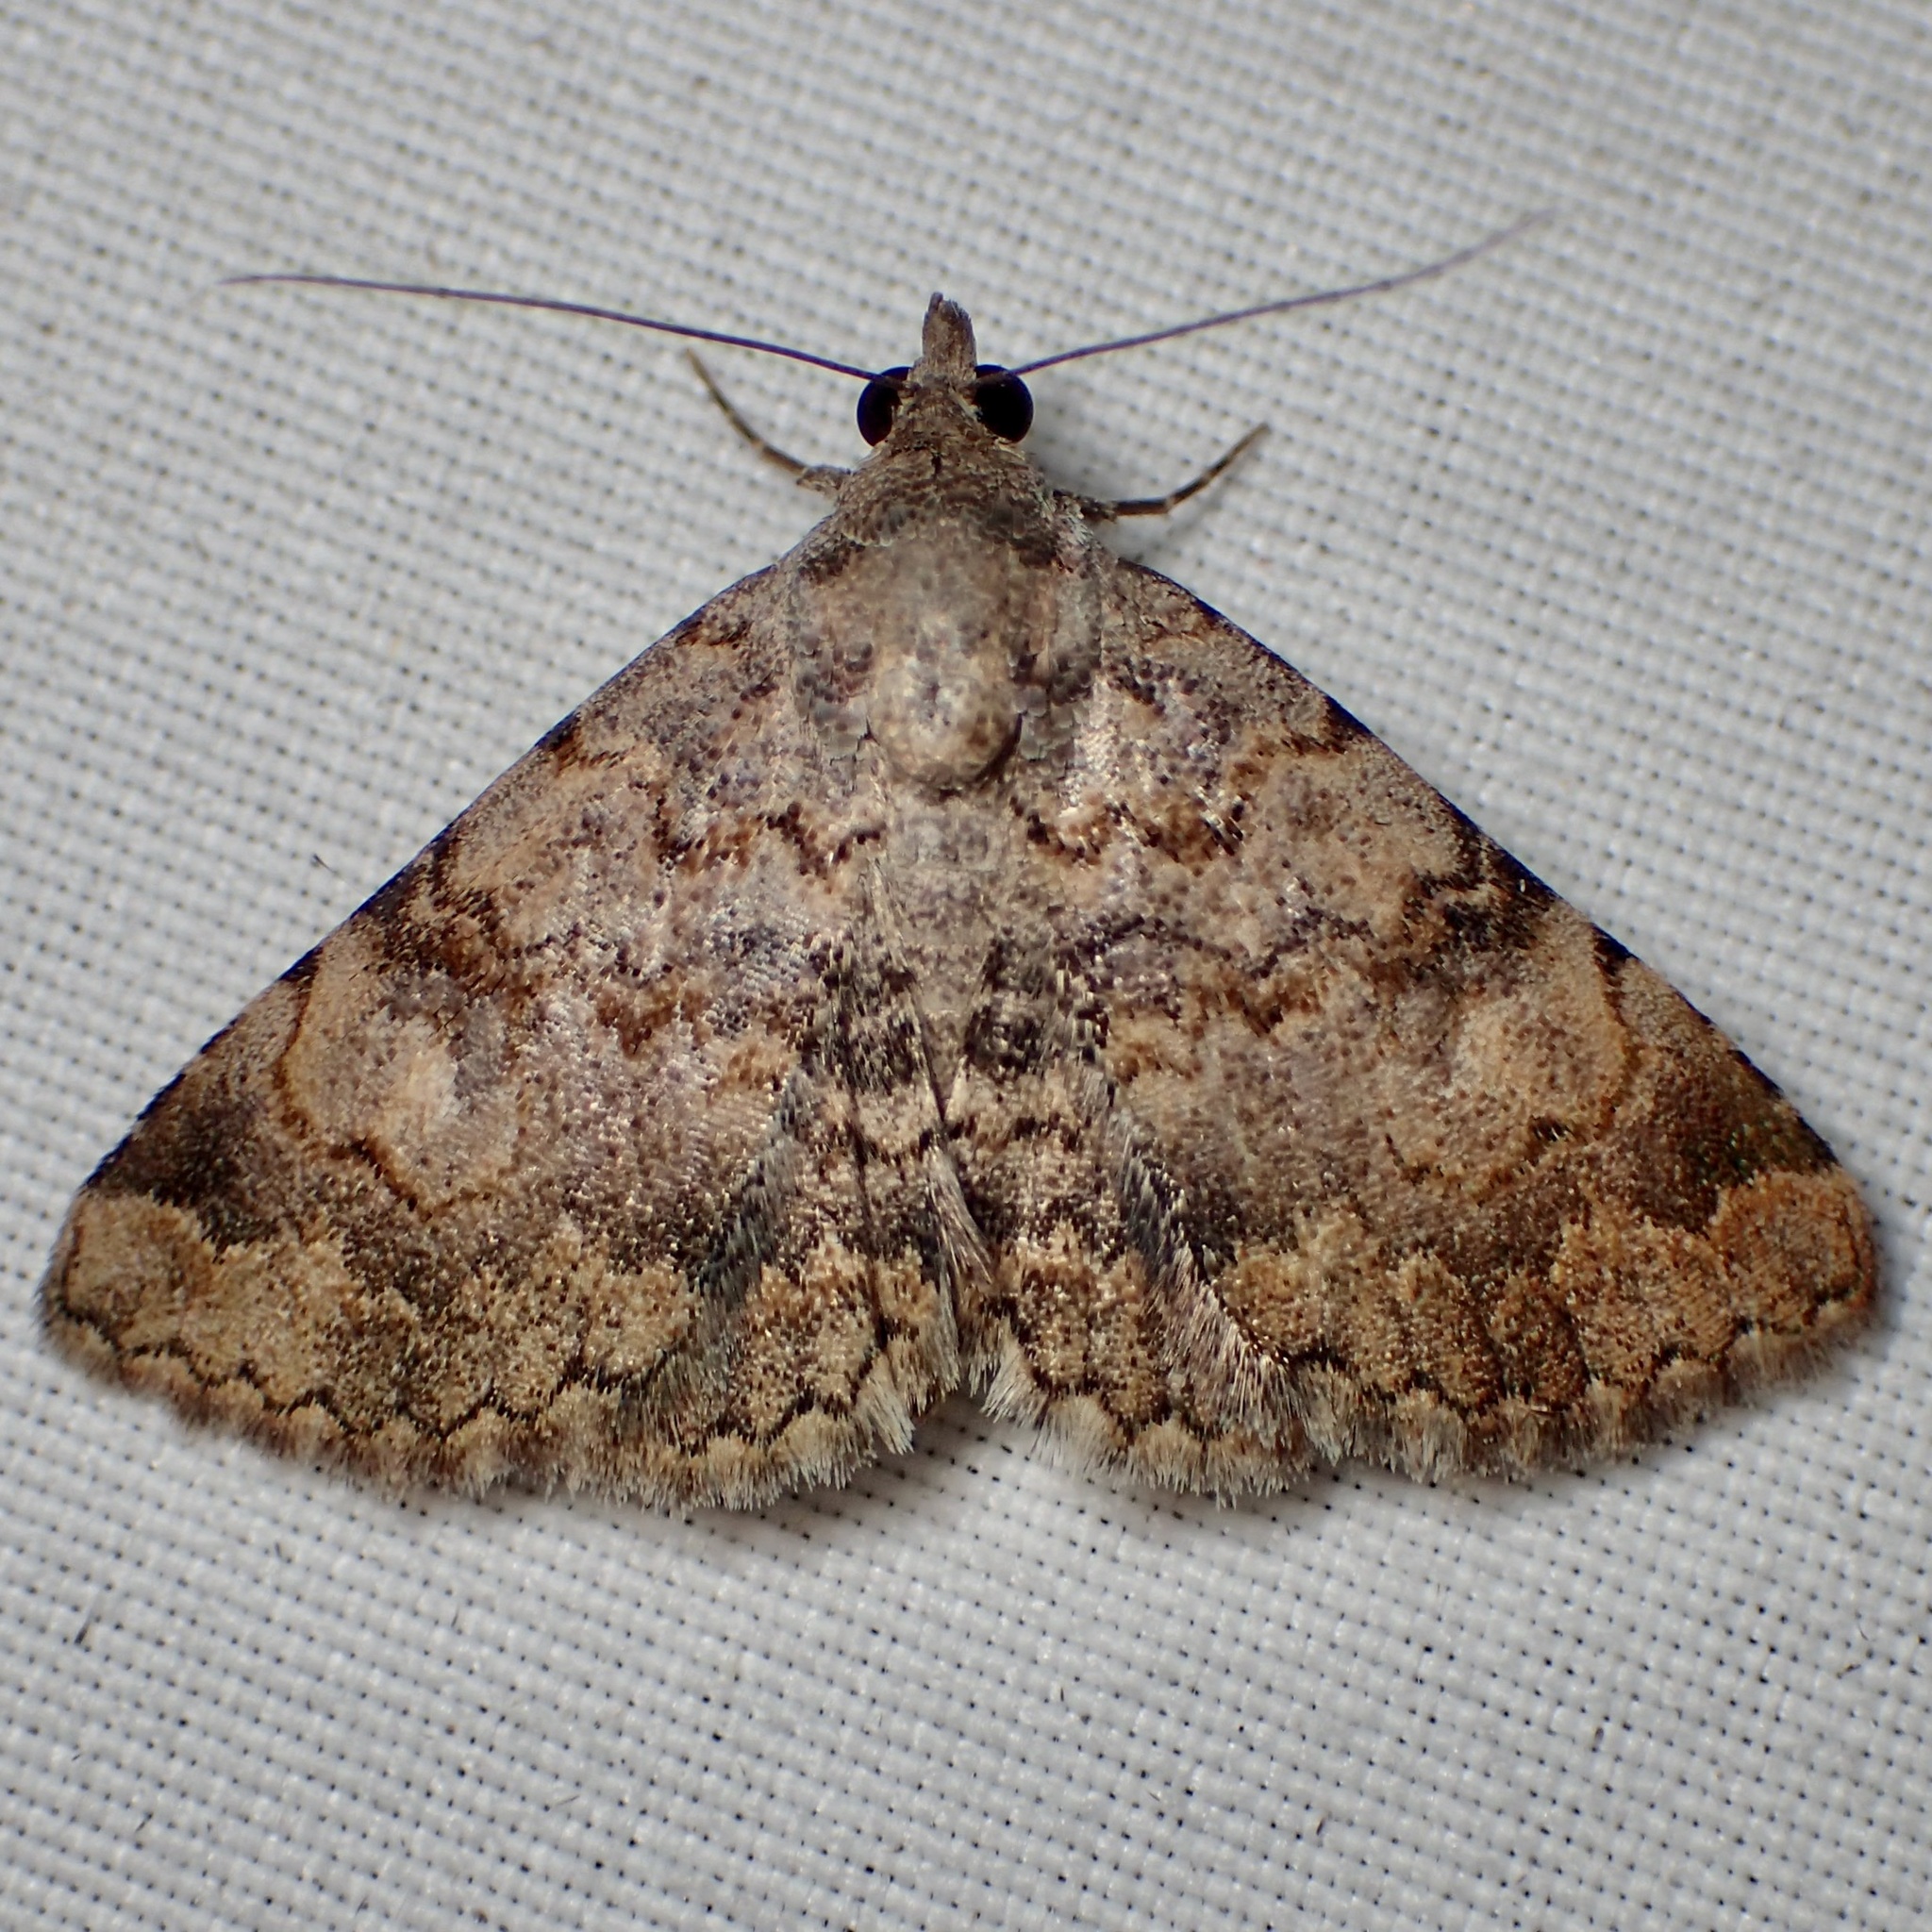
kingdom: Animalia
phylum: Arthropoda
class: Insecta
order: Lepidoptera
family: Erebidae
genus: Toxonprucha
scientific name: Toxonprucha volucris
